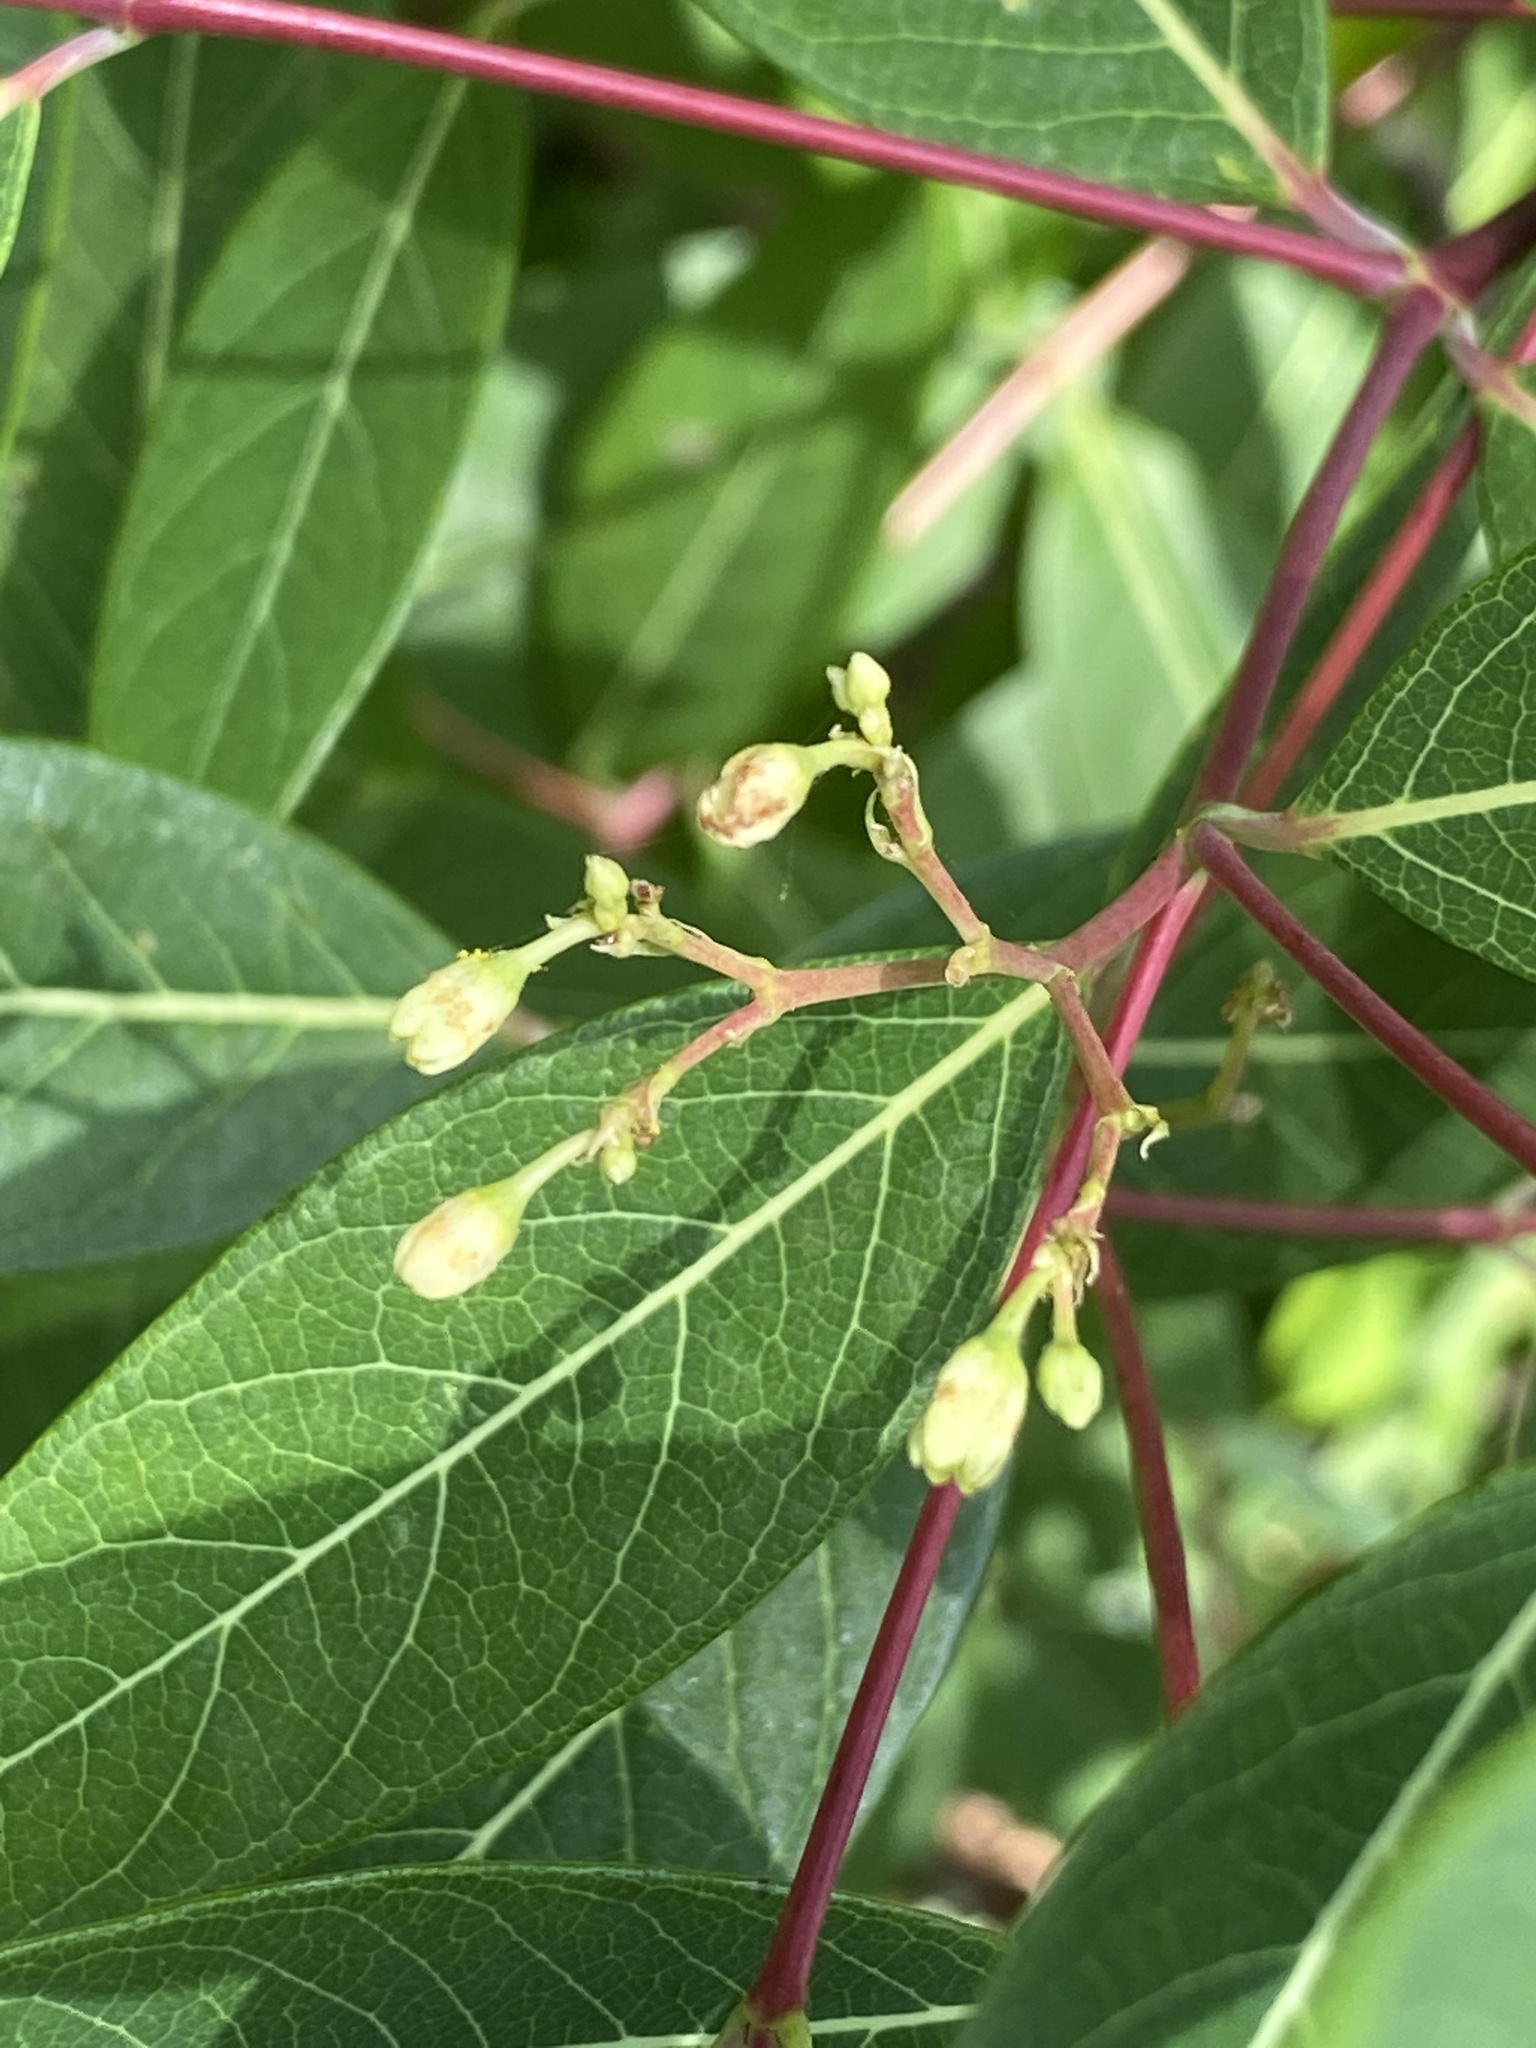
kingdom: Plantae
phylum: Tracheophyta
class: Magnoliopsida
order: Gentianales
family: Apocynaceae
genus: Apocynum
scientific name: Apocynum cannabinum
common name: Hemp dogbane
